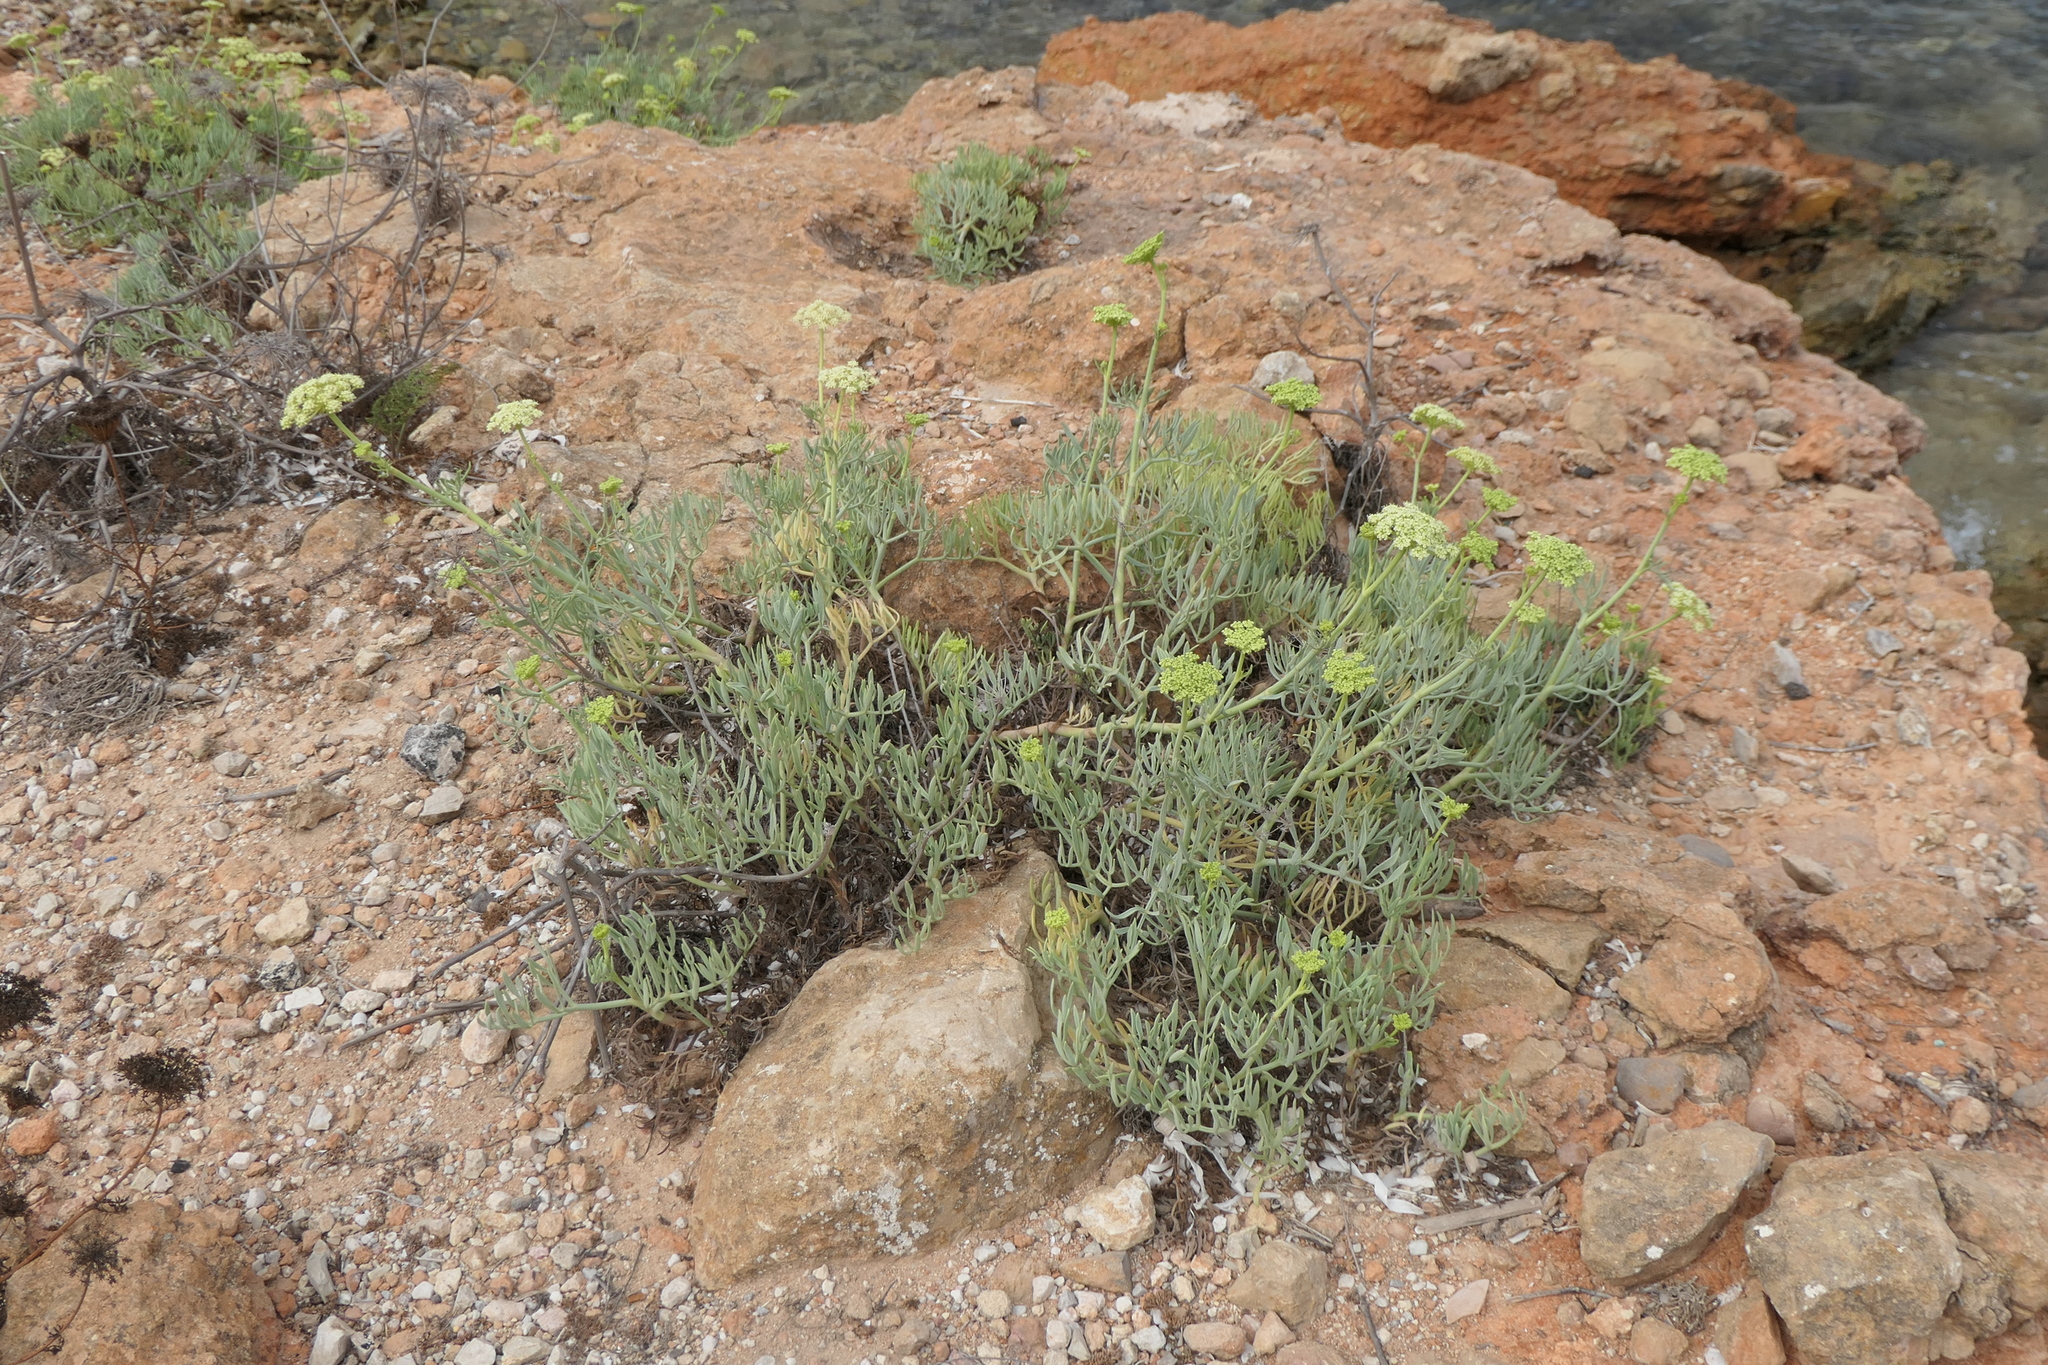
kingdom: Plantae
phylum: Tracheophyta
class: Magnoliopsida
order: Apiales
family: Apiaceae
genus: Crithmum
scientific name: Crithmum maritimum
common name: Rock samphire
